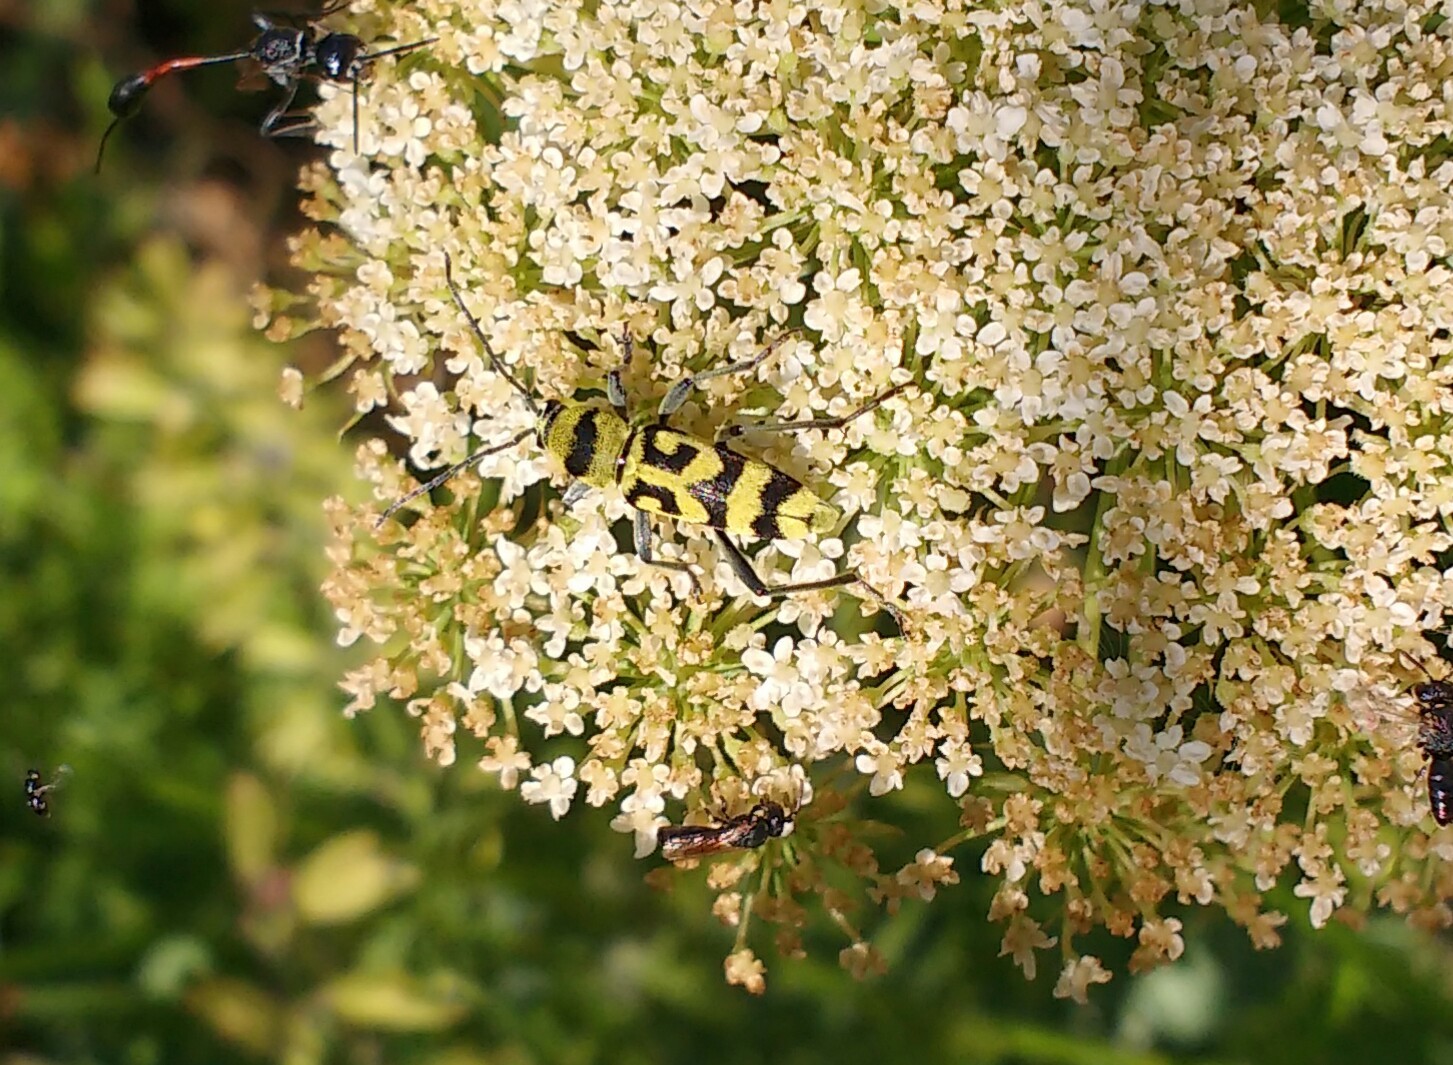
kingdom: Plantae
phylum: Tracheophyta
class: Magnoliopsida
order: Apiales
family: Apiaceae
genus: Daucus
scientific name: Daucus carota
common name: Wild carrot
